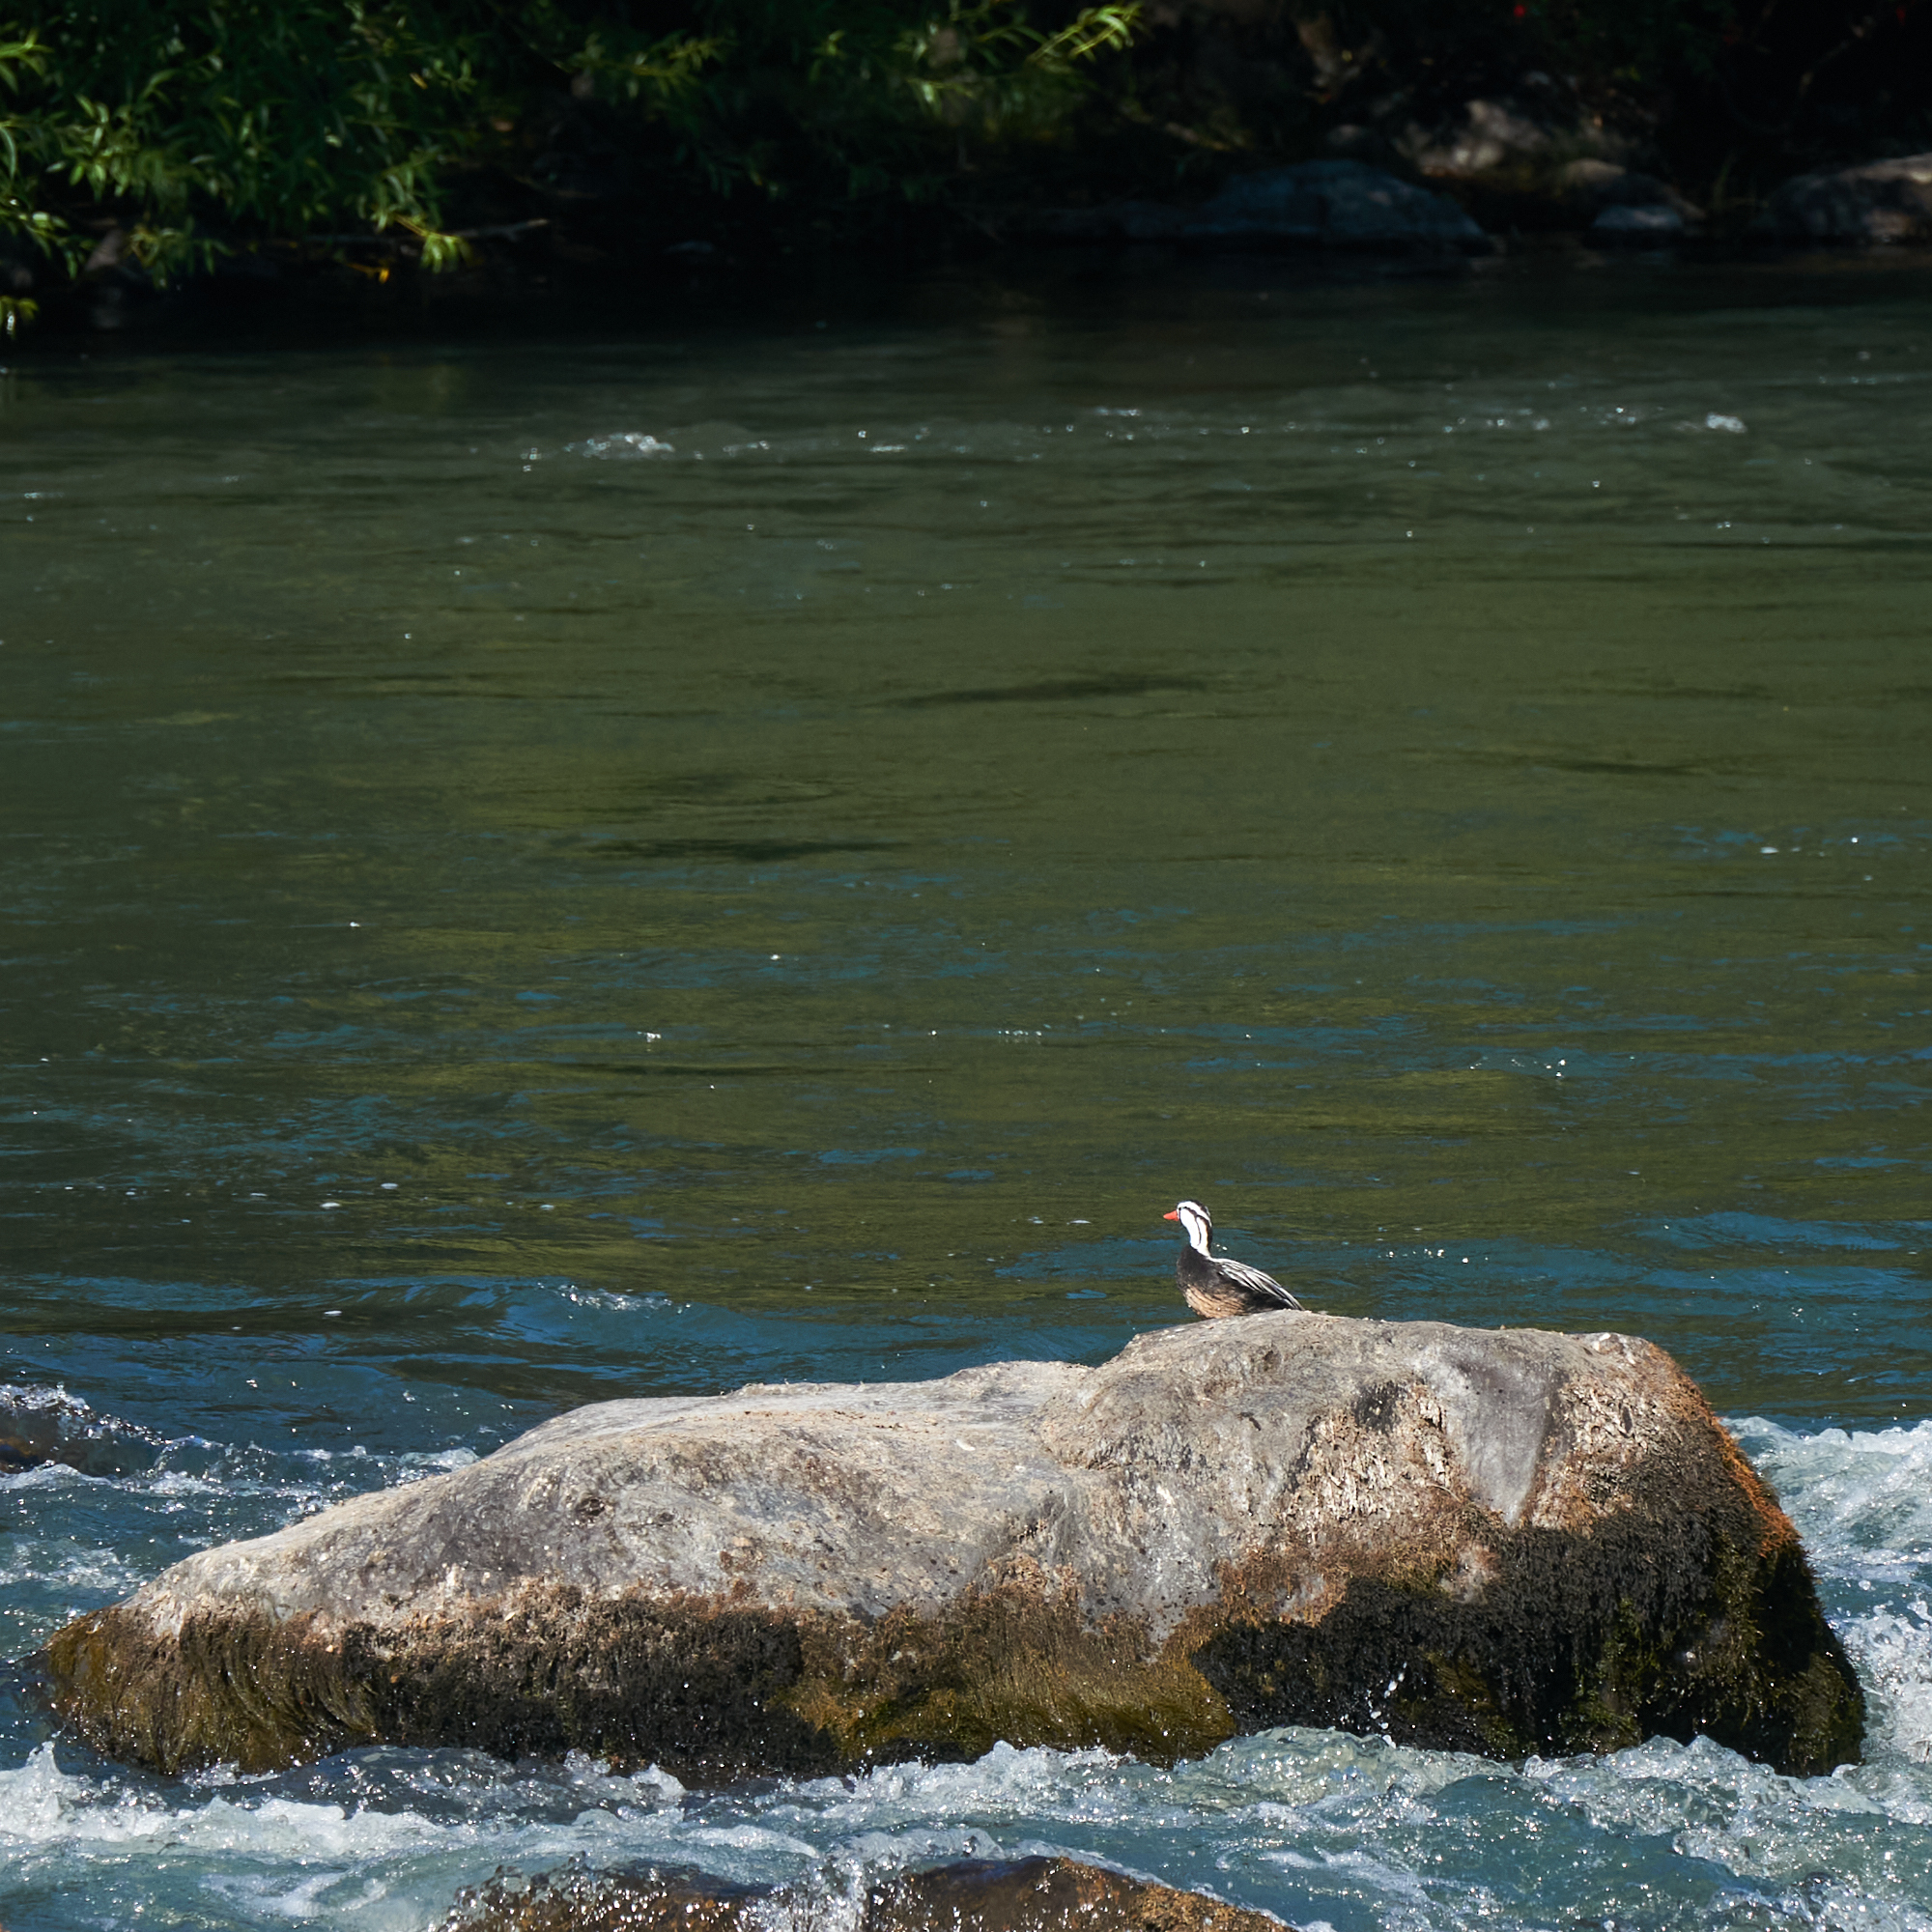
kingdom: Animalia
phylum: Chordata
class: Aves
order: Anseriformes
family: Anatidae
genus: Merganetta
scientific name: Merganetta armata
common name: Torrent duck
